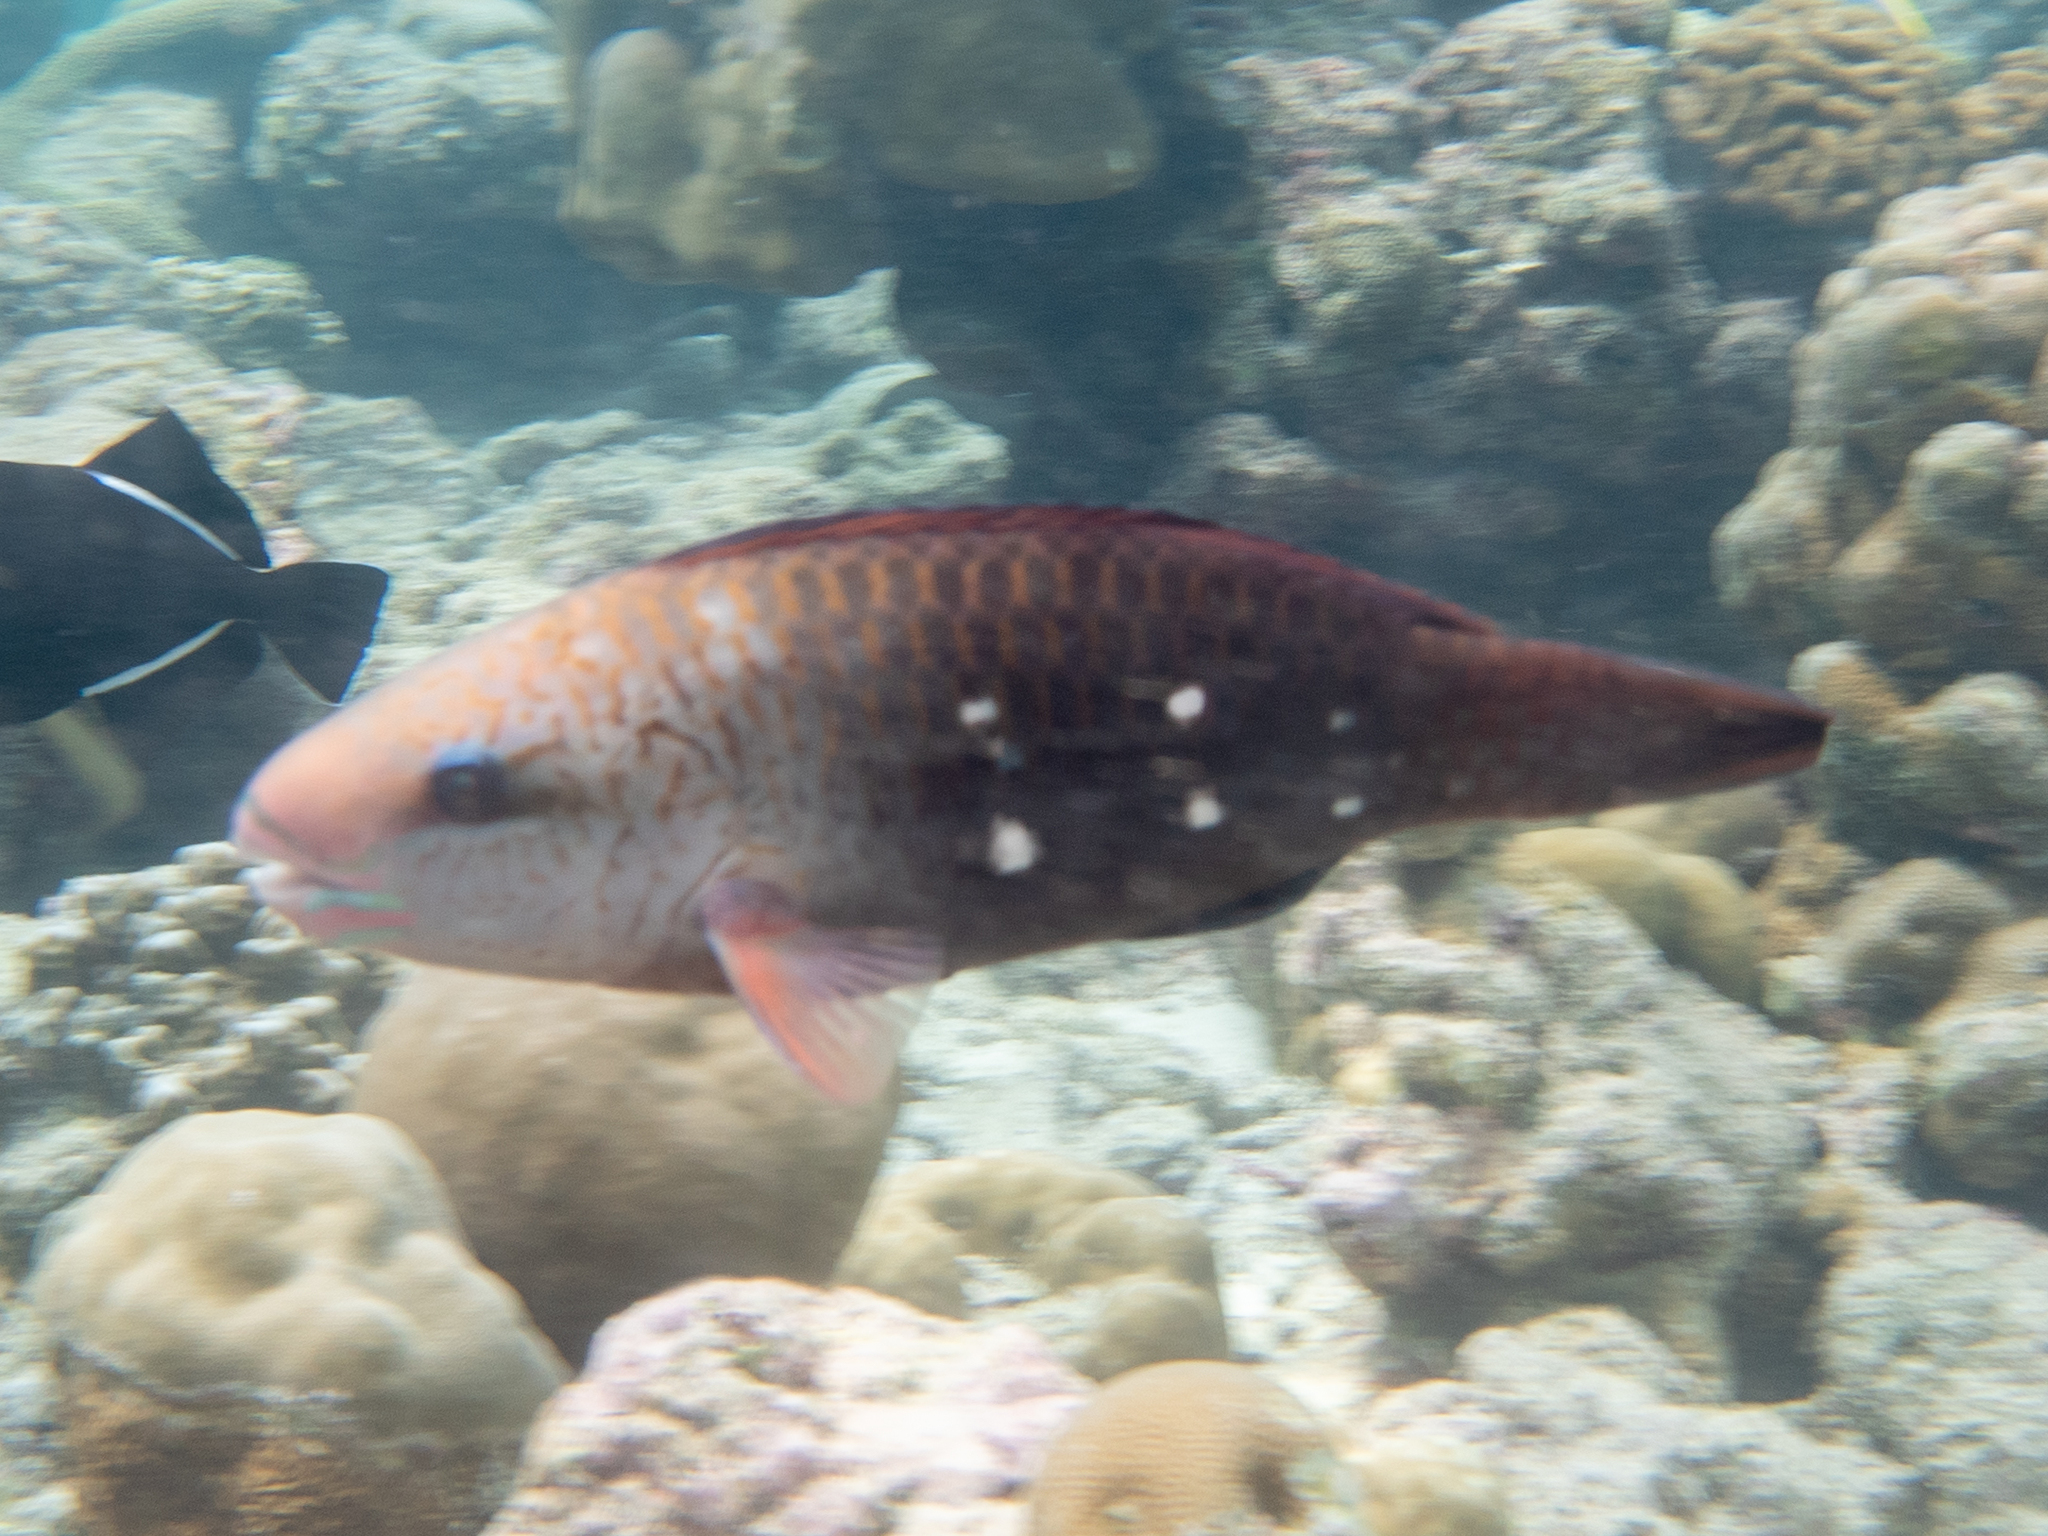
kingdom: Animalia
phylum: Chordata
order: Perciformes
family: Scaridae
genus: Chlorurus
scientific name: Chlorurus sordidus
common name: Bullethead parrotfish
